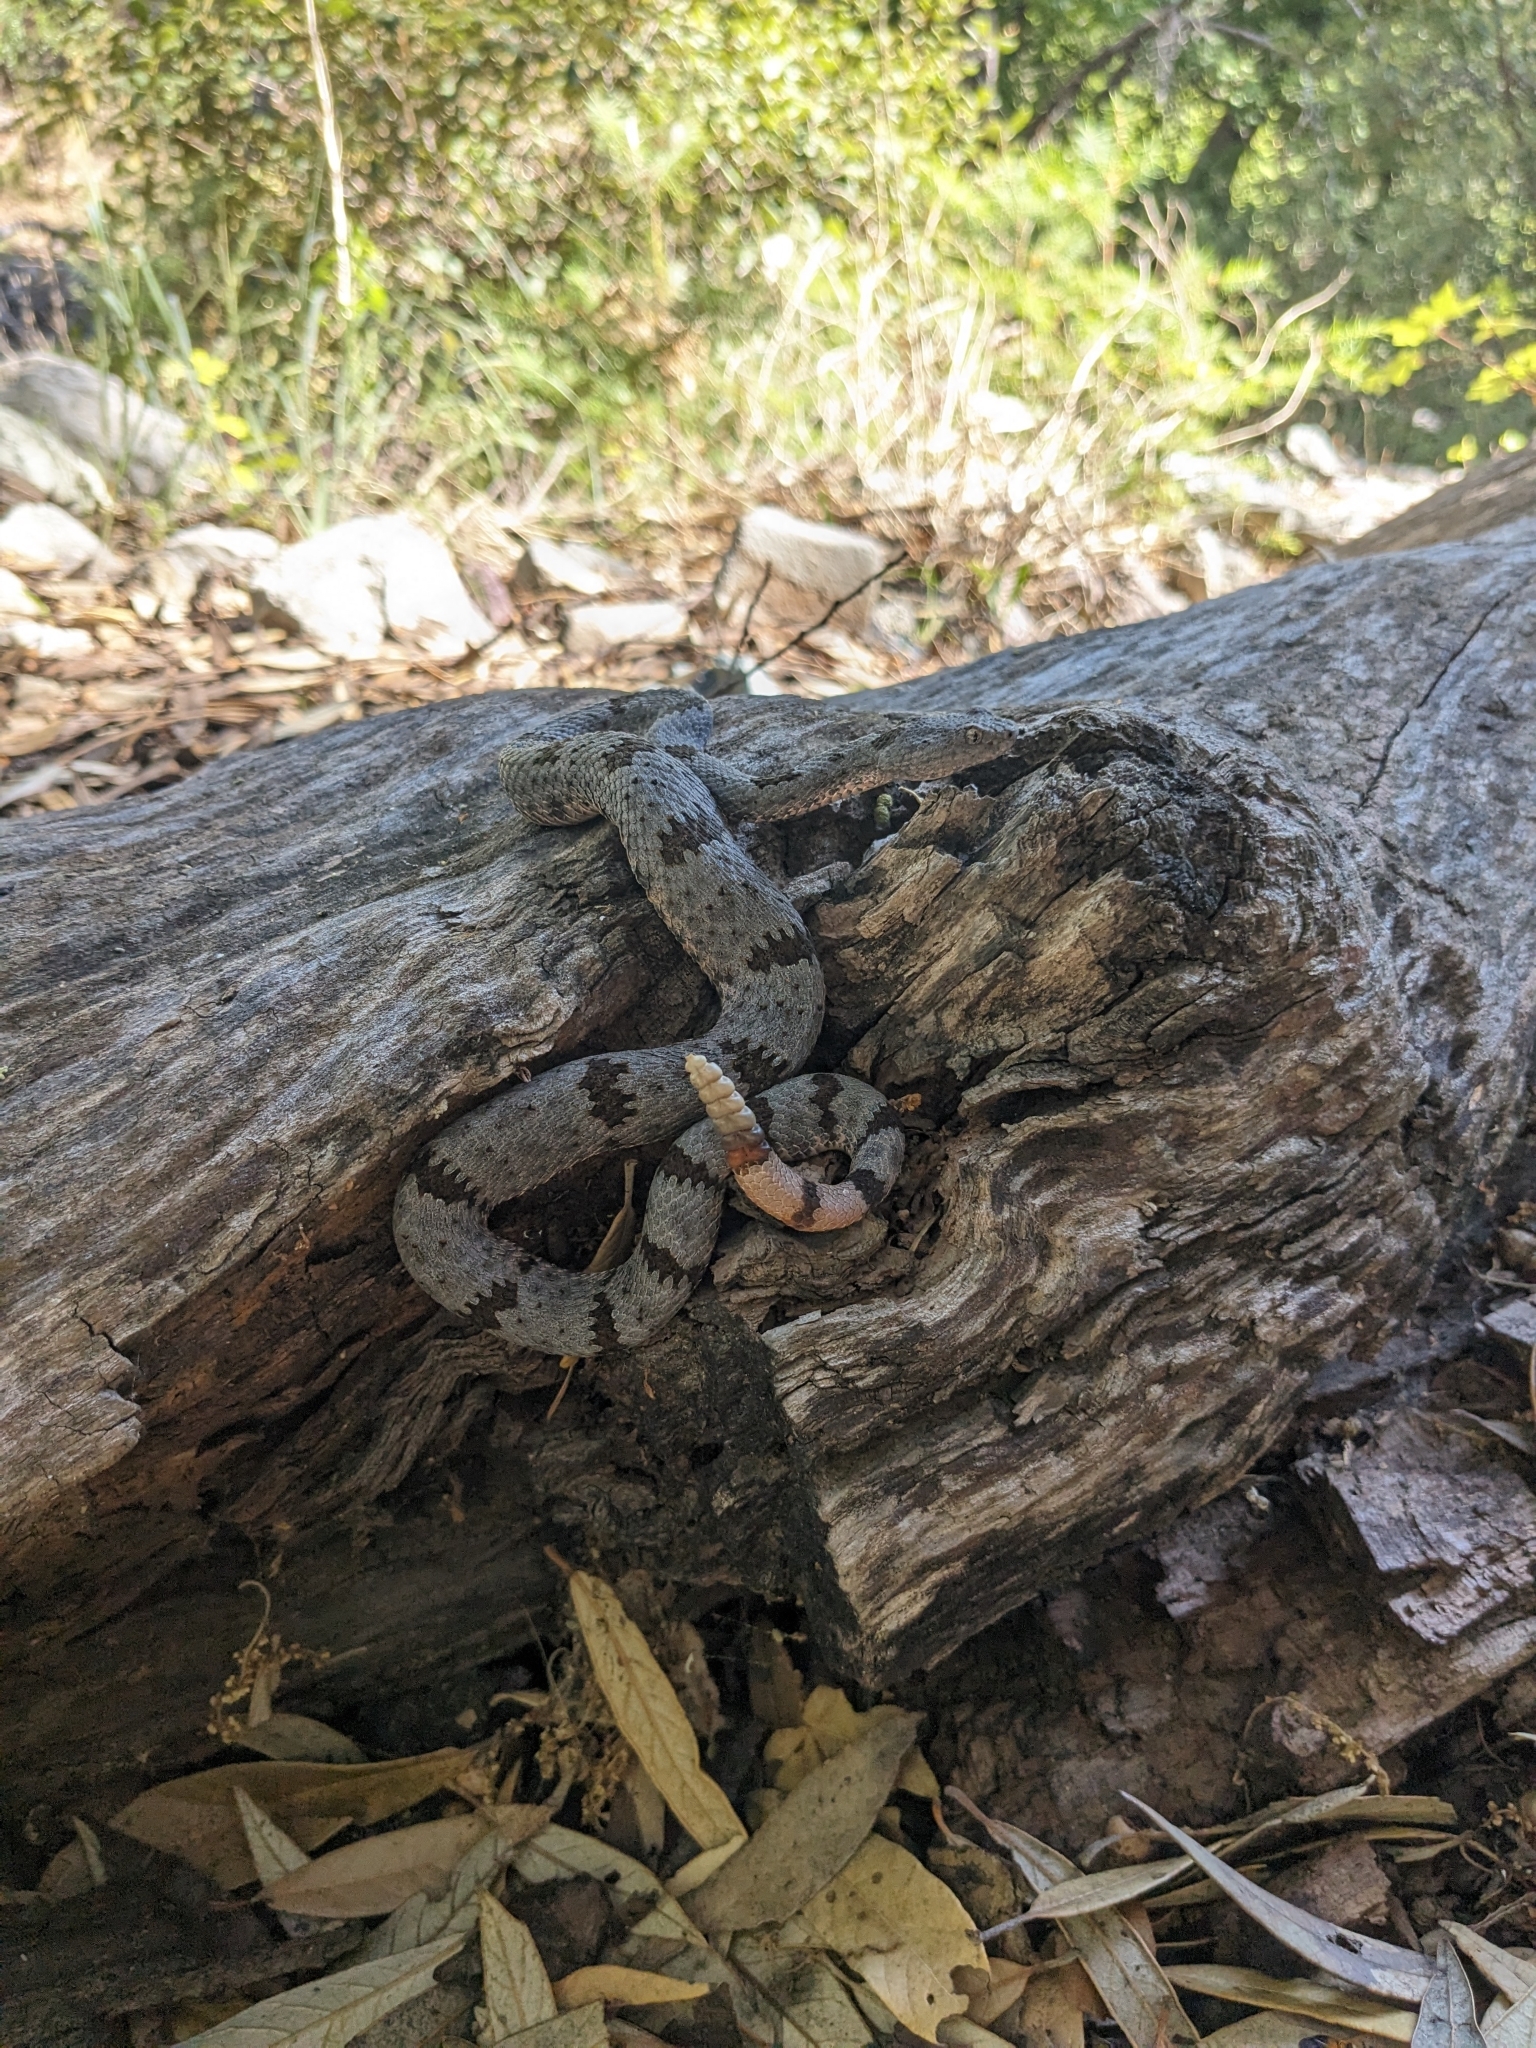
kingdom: Animalia
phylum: Chordata
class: Squamata
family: Viperidae
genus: Crotalus
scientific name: Crotalus lepidus
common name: Rock rattlesnake
